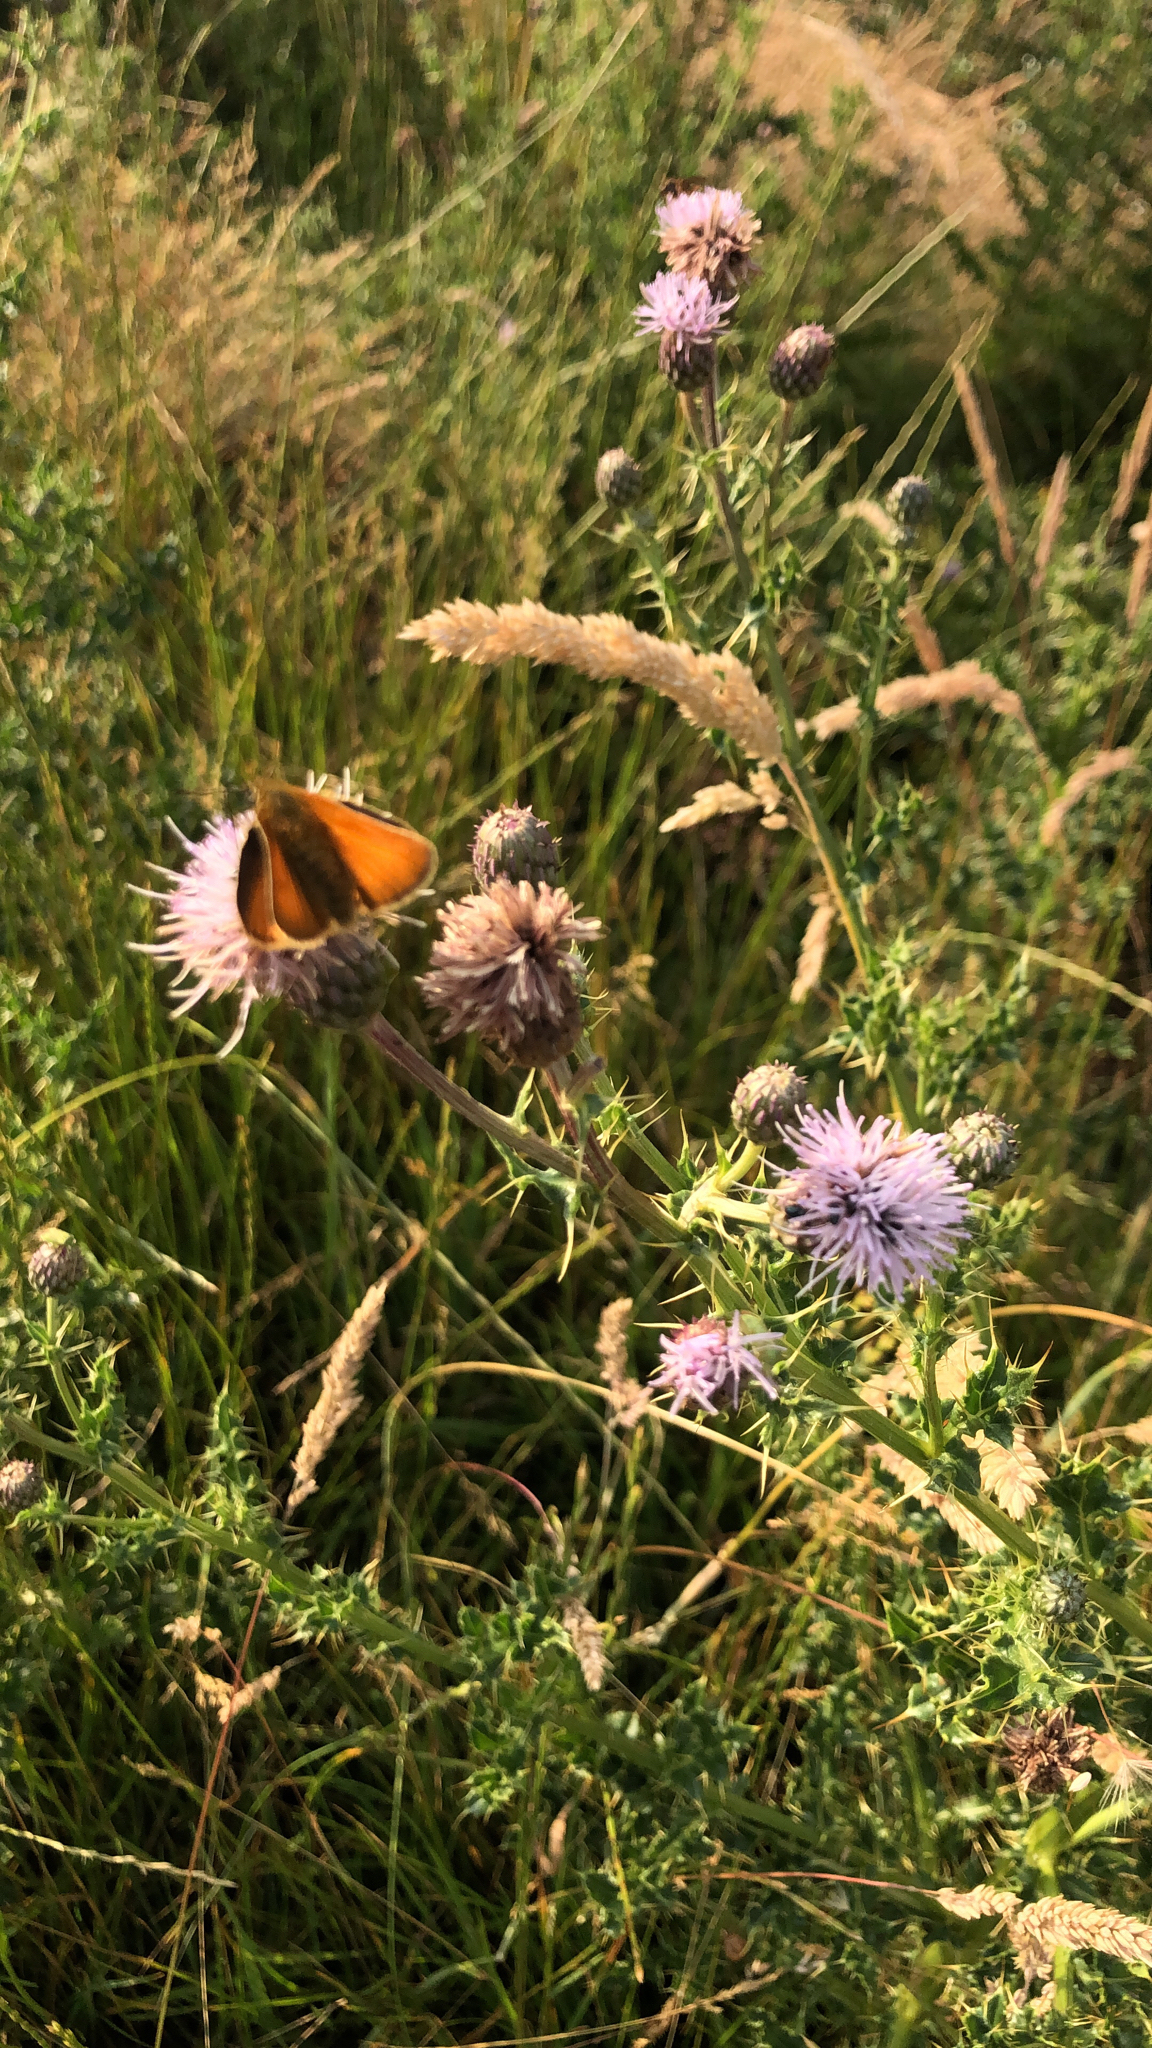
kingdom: Animalia
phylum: Arthropoda
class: Insecta
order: Lepidoptera
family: Hesperiidae
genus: Thymelicus
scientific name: Thymelicus sylvestris
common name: Small skipper
